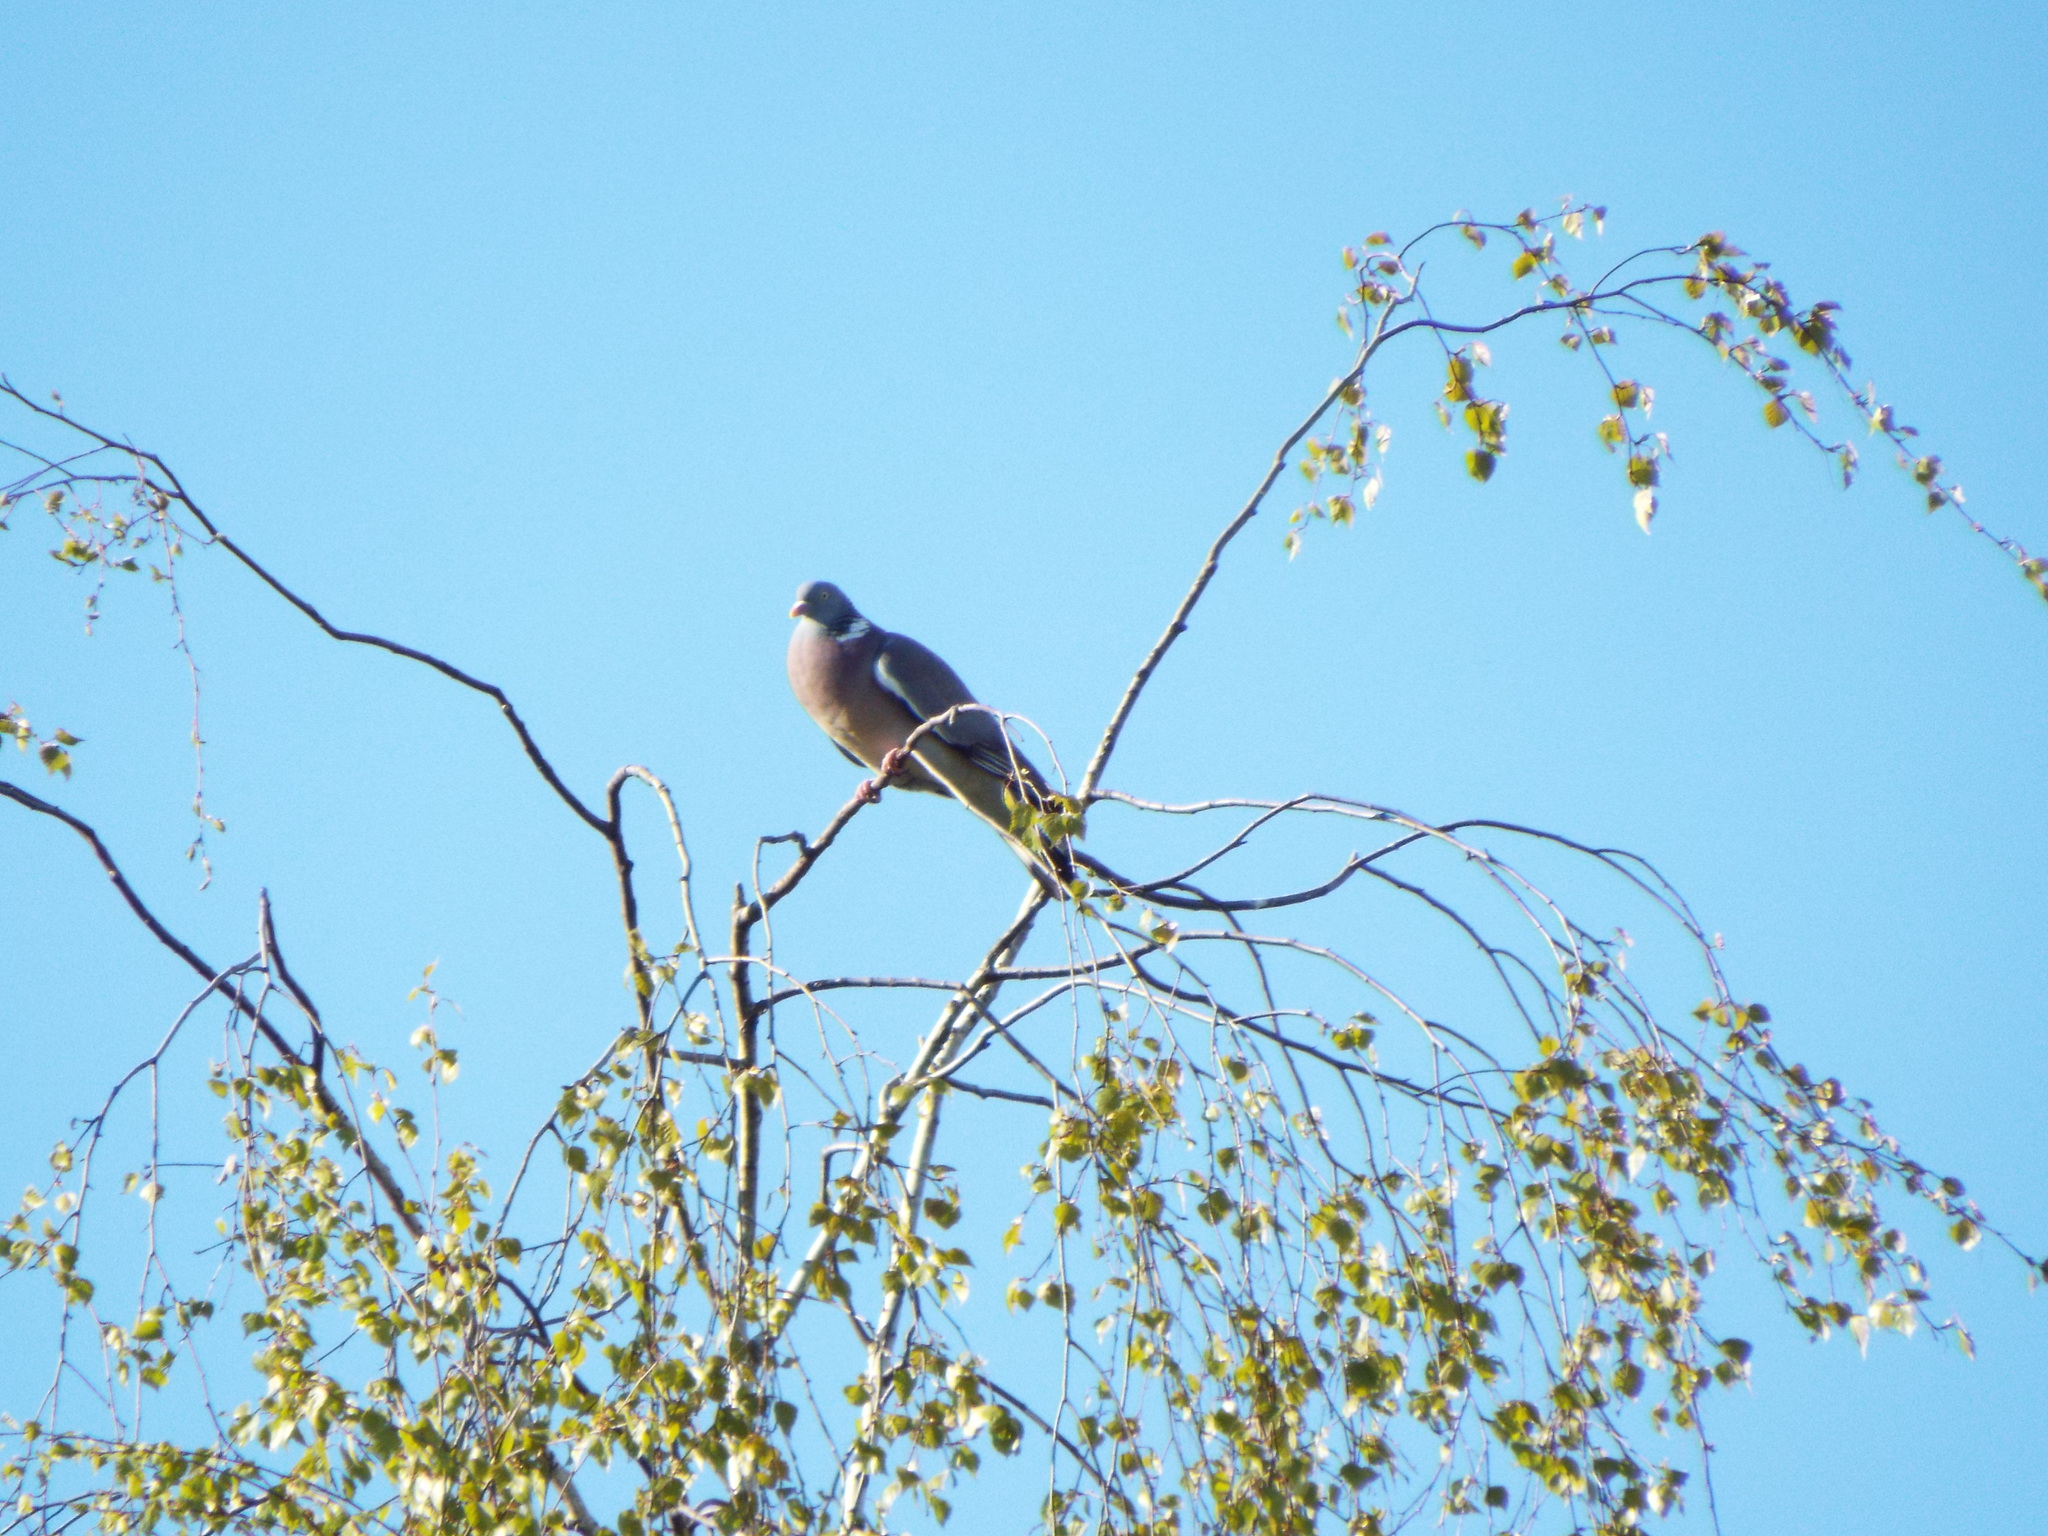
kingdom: Animalia
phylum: Chordata
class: Aves
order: Columbiformes
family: Columbidae
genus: Columba
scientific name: Columba palumbus
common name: Common wood pigeon
